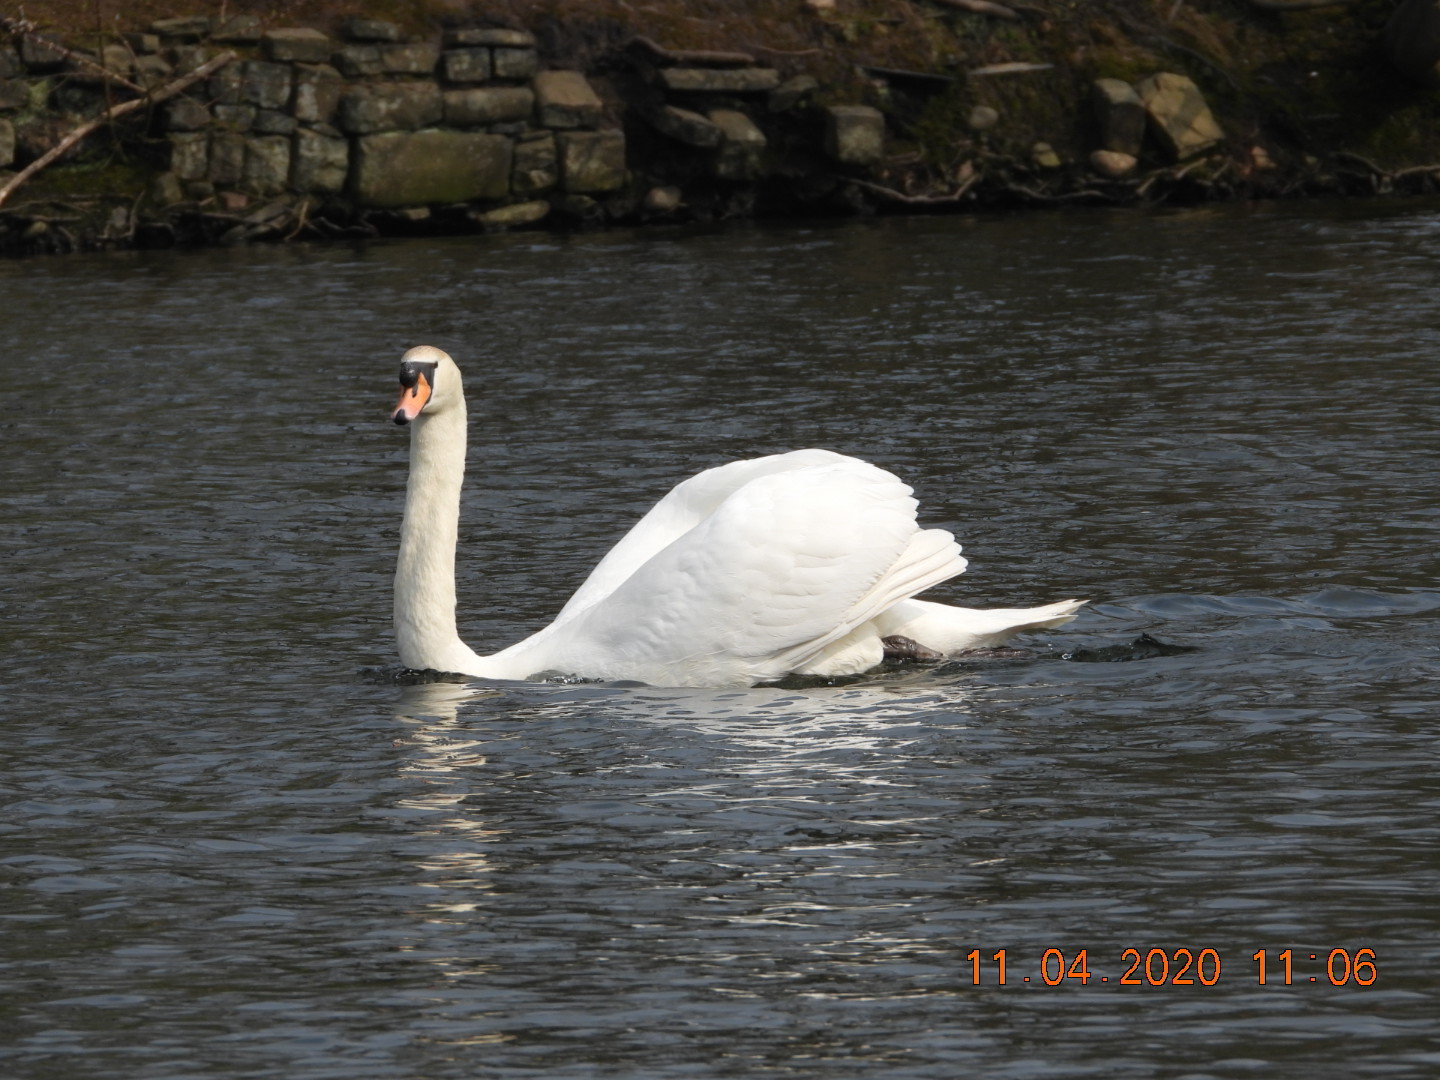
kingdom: Animalia
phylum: Chordata
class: Aves
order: Anseriformes
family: Anatidae
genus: Cygnus
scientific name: Cygnus olor
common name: Mute swan
